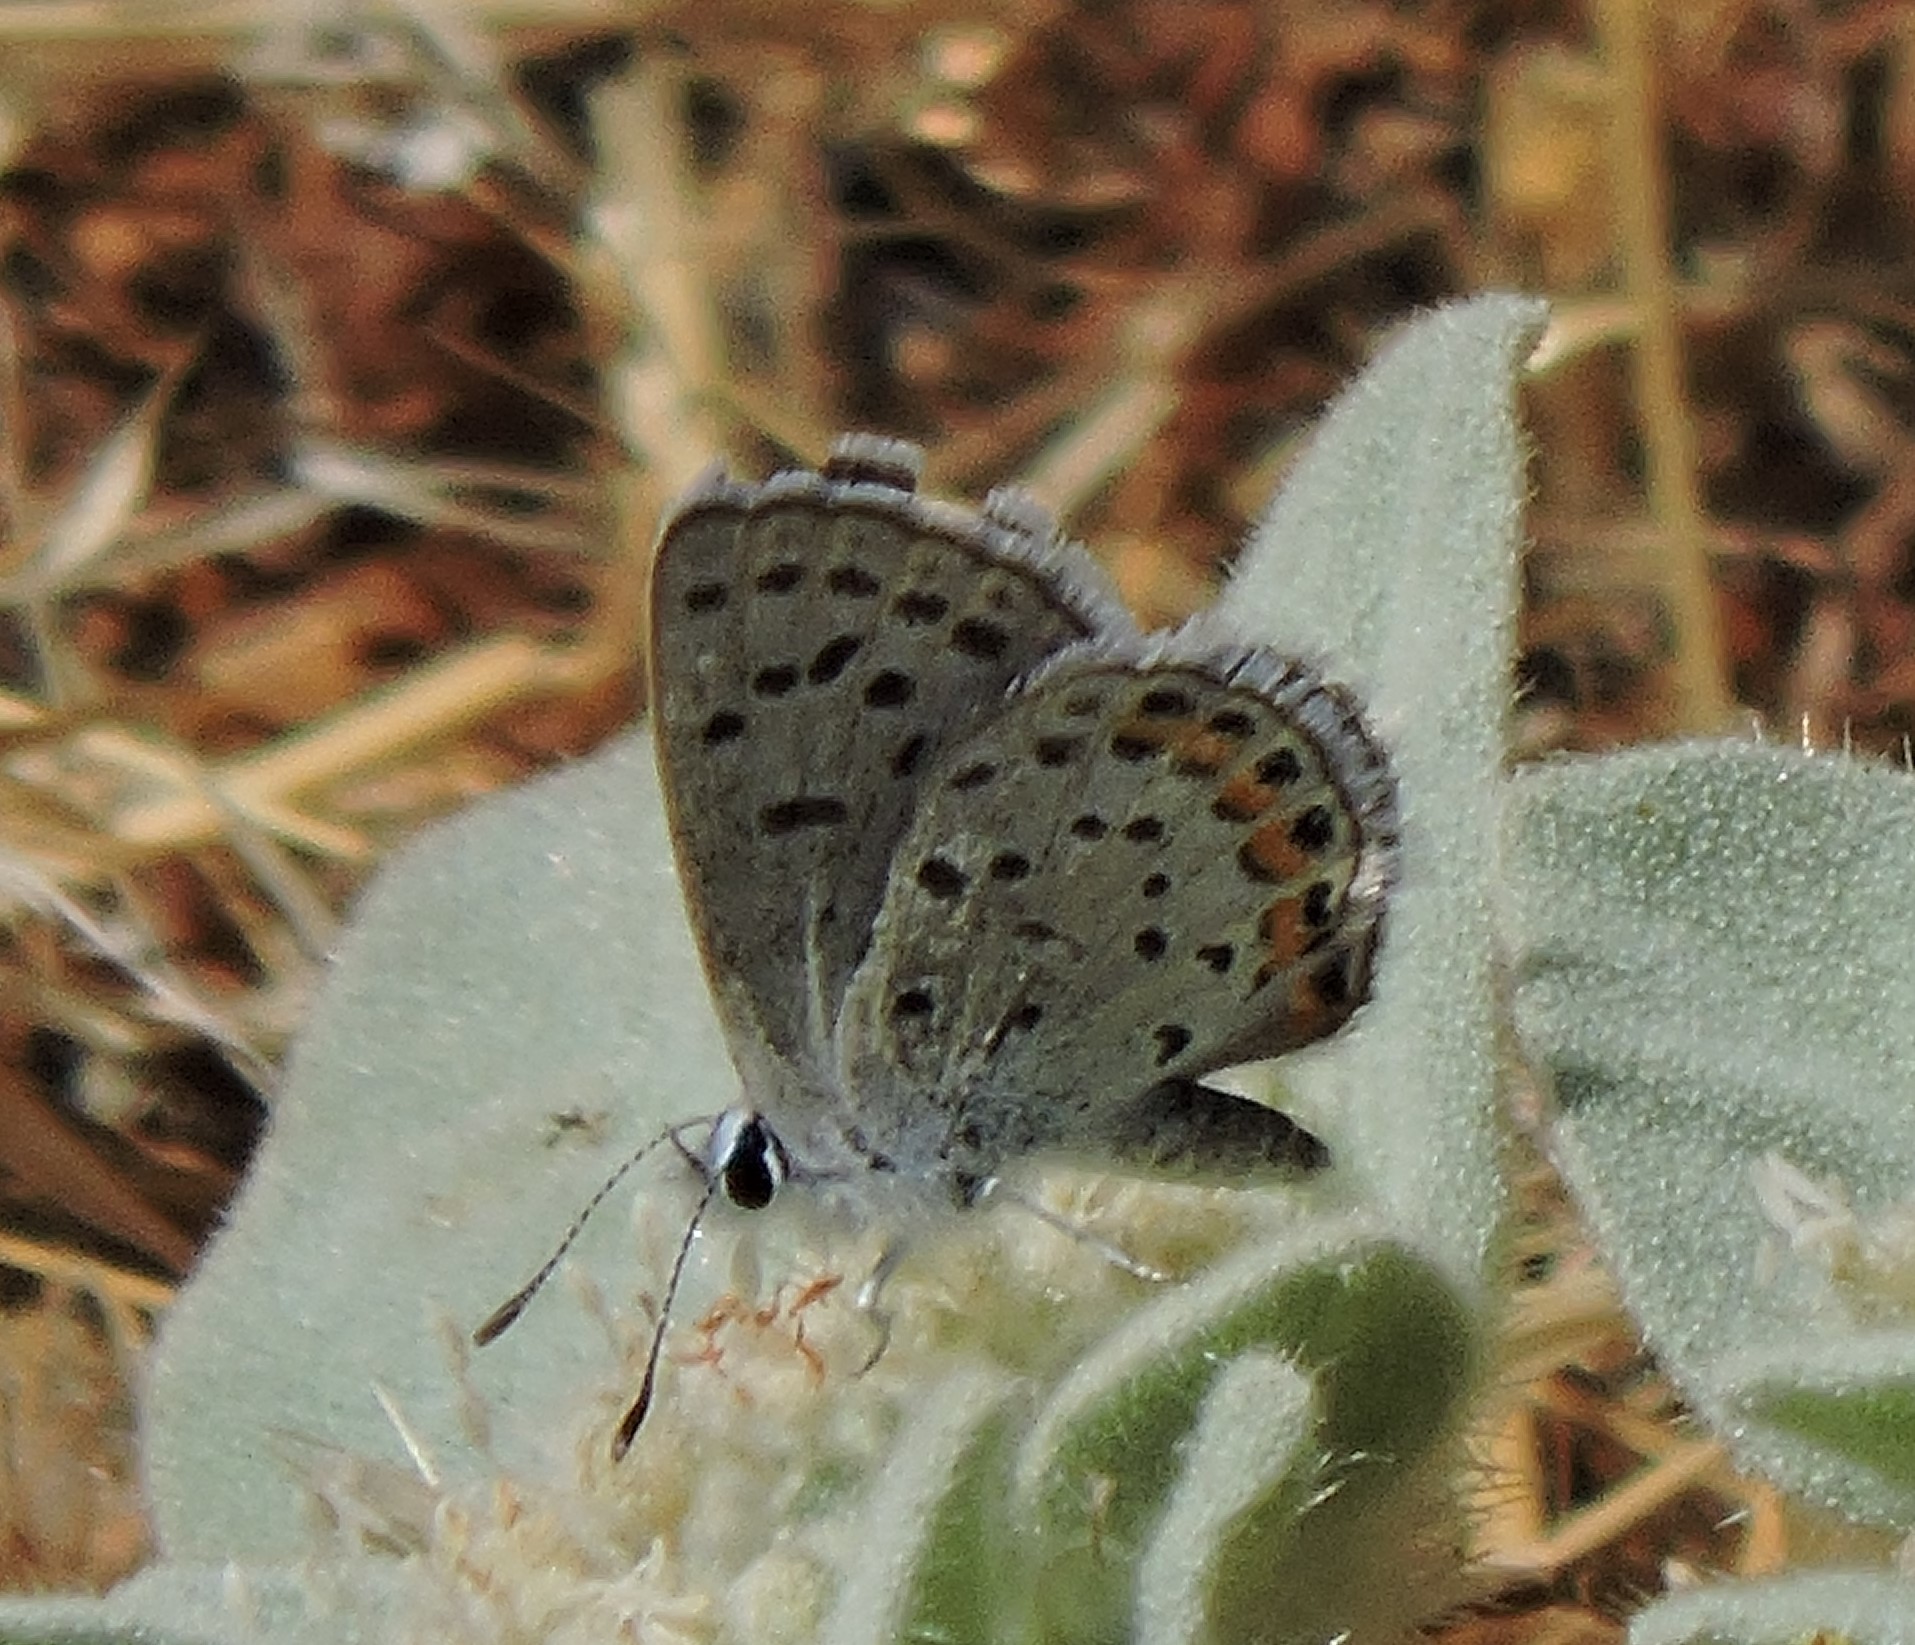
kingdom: Animalia
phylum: Arthropoda
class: Insecta
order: Lepidoptera
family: Lycaenidae
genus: Icaricia
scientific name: Icaricia acmon
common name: Acmon blue
